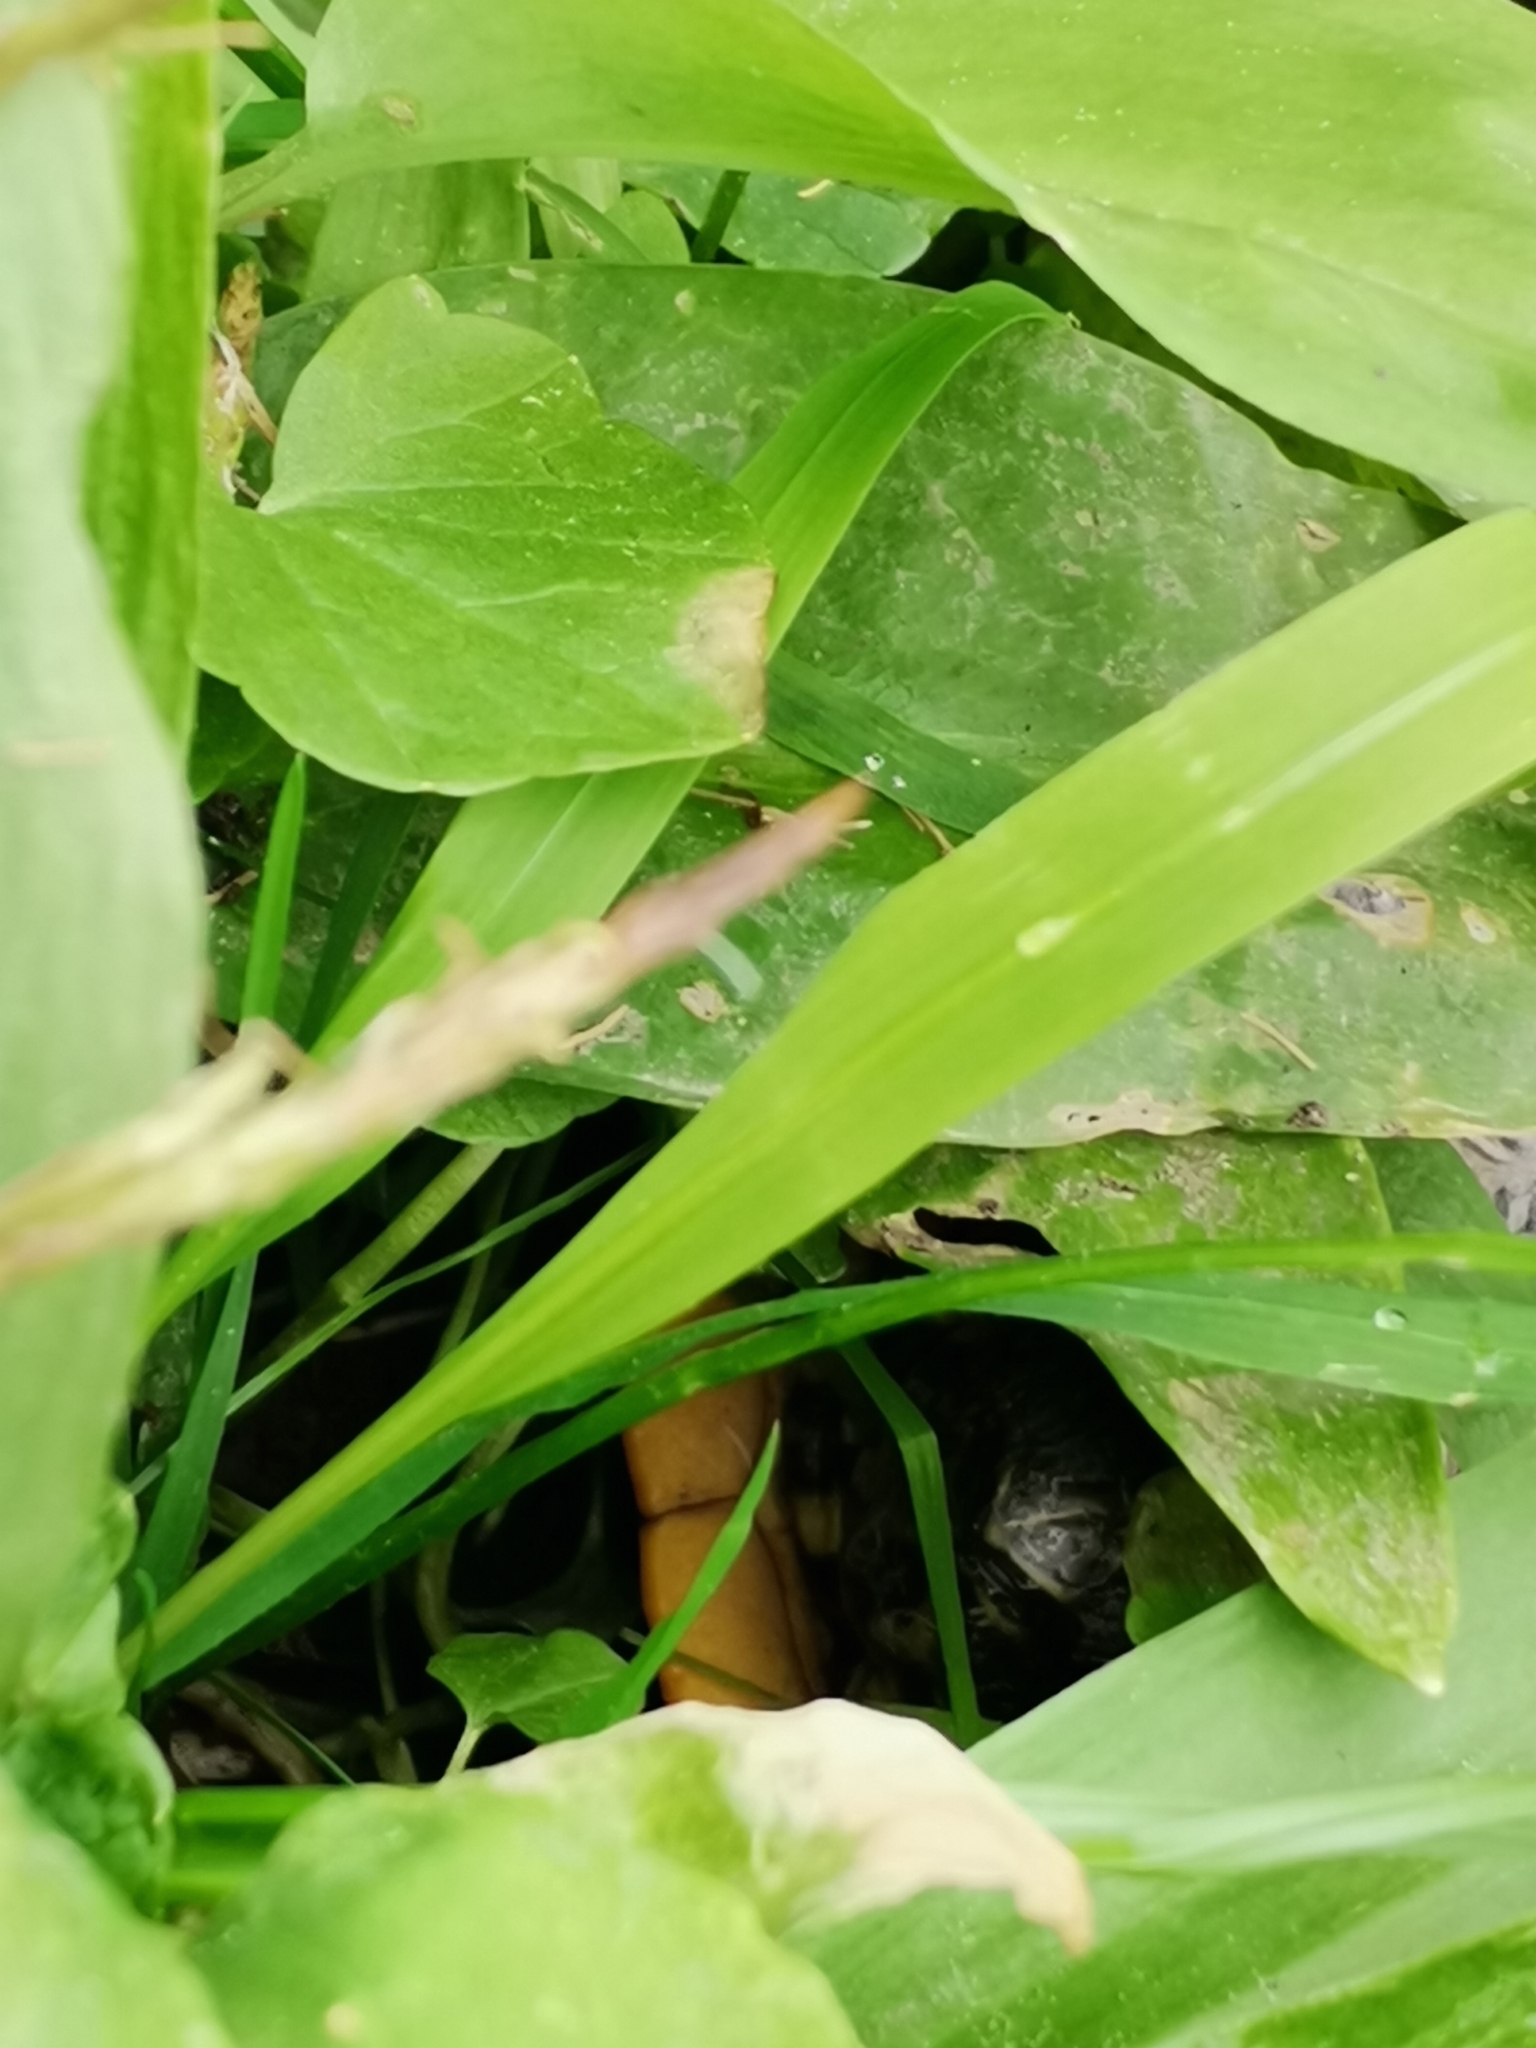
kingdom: Animalia
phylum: Chordata
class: Testudines
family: Emydidae
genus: Trachemys
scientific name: Trachemys scripta
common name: Slider
